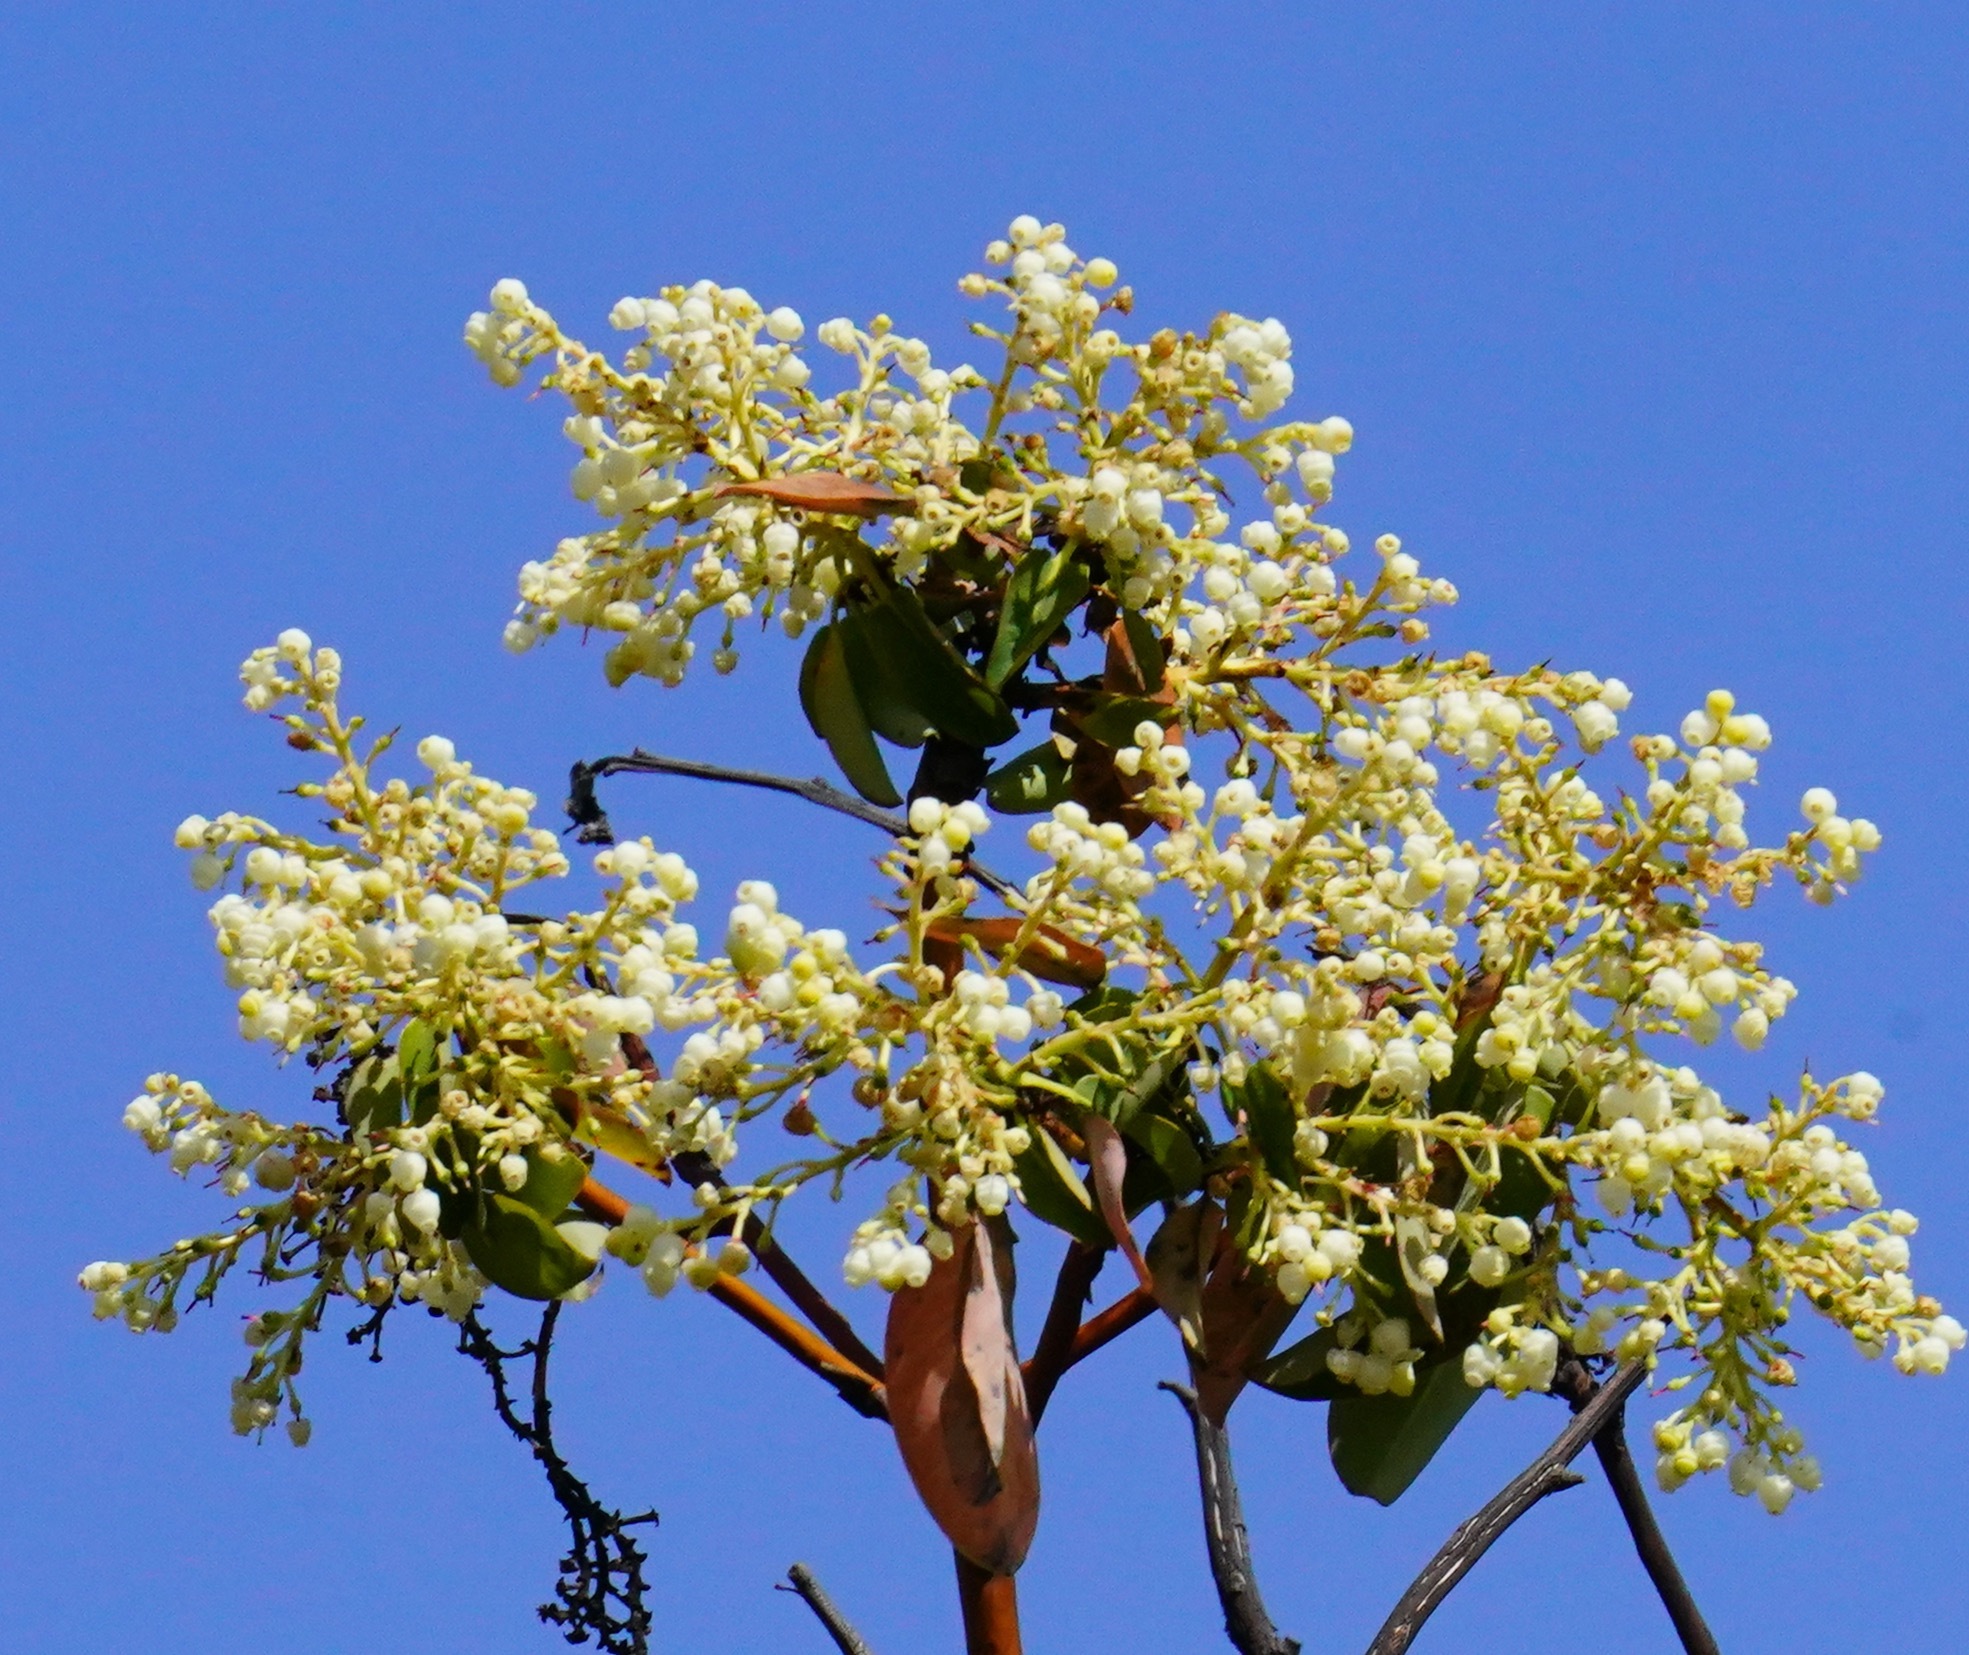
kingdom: Plantae
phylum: Tracheophyta
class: Magnoliopsida
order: Ericales
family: Ericaceae
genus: Arbutus
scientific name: Arbutus menziesii
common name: Pacific madrone
